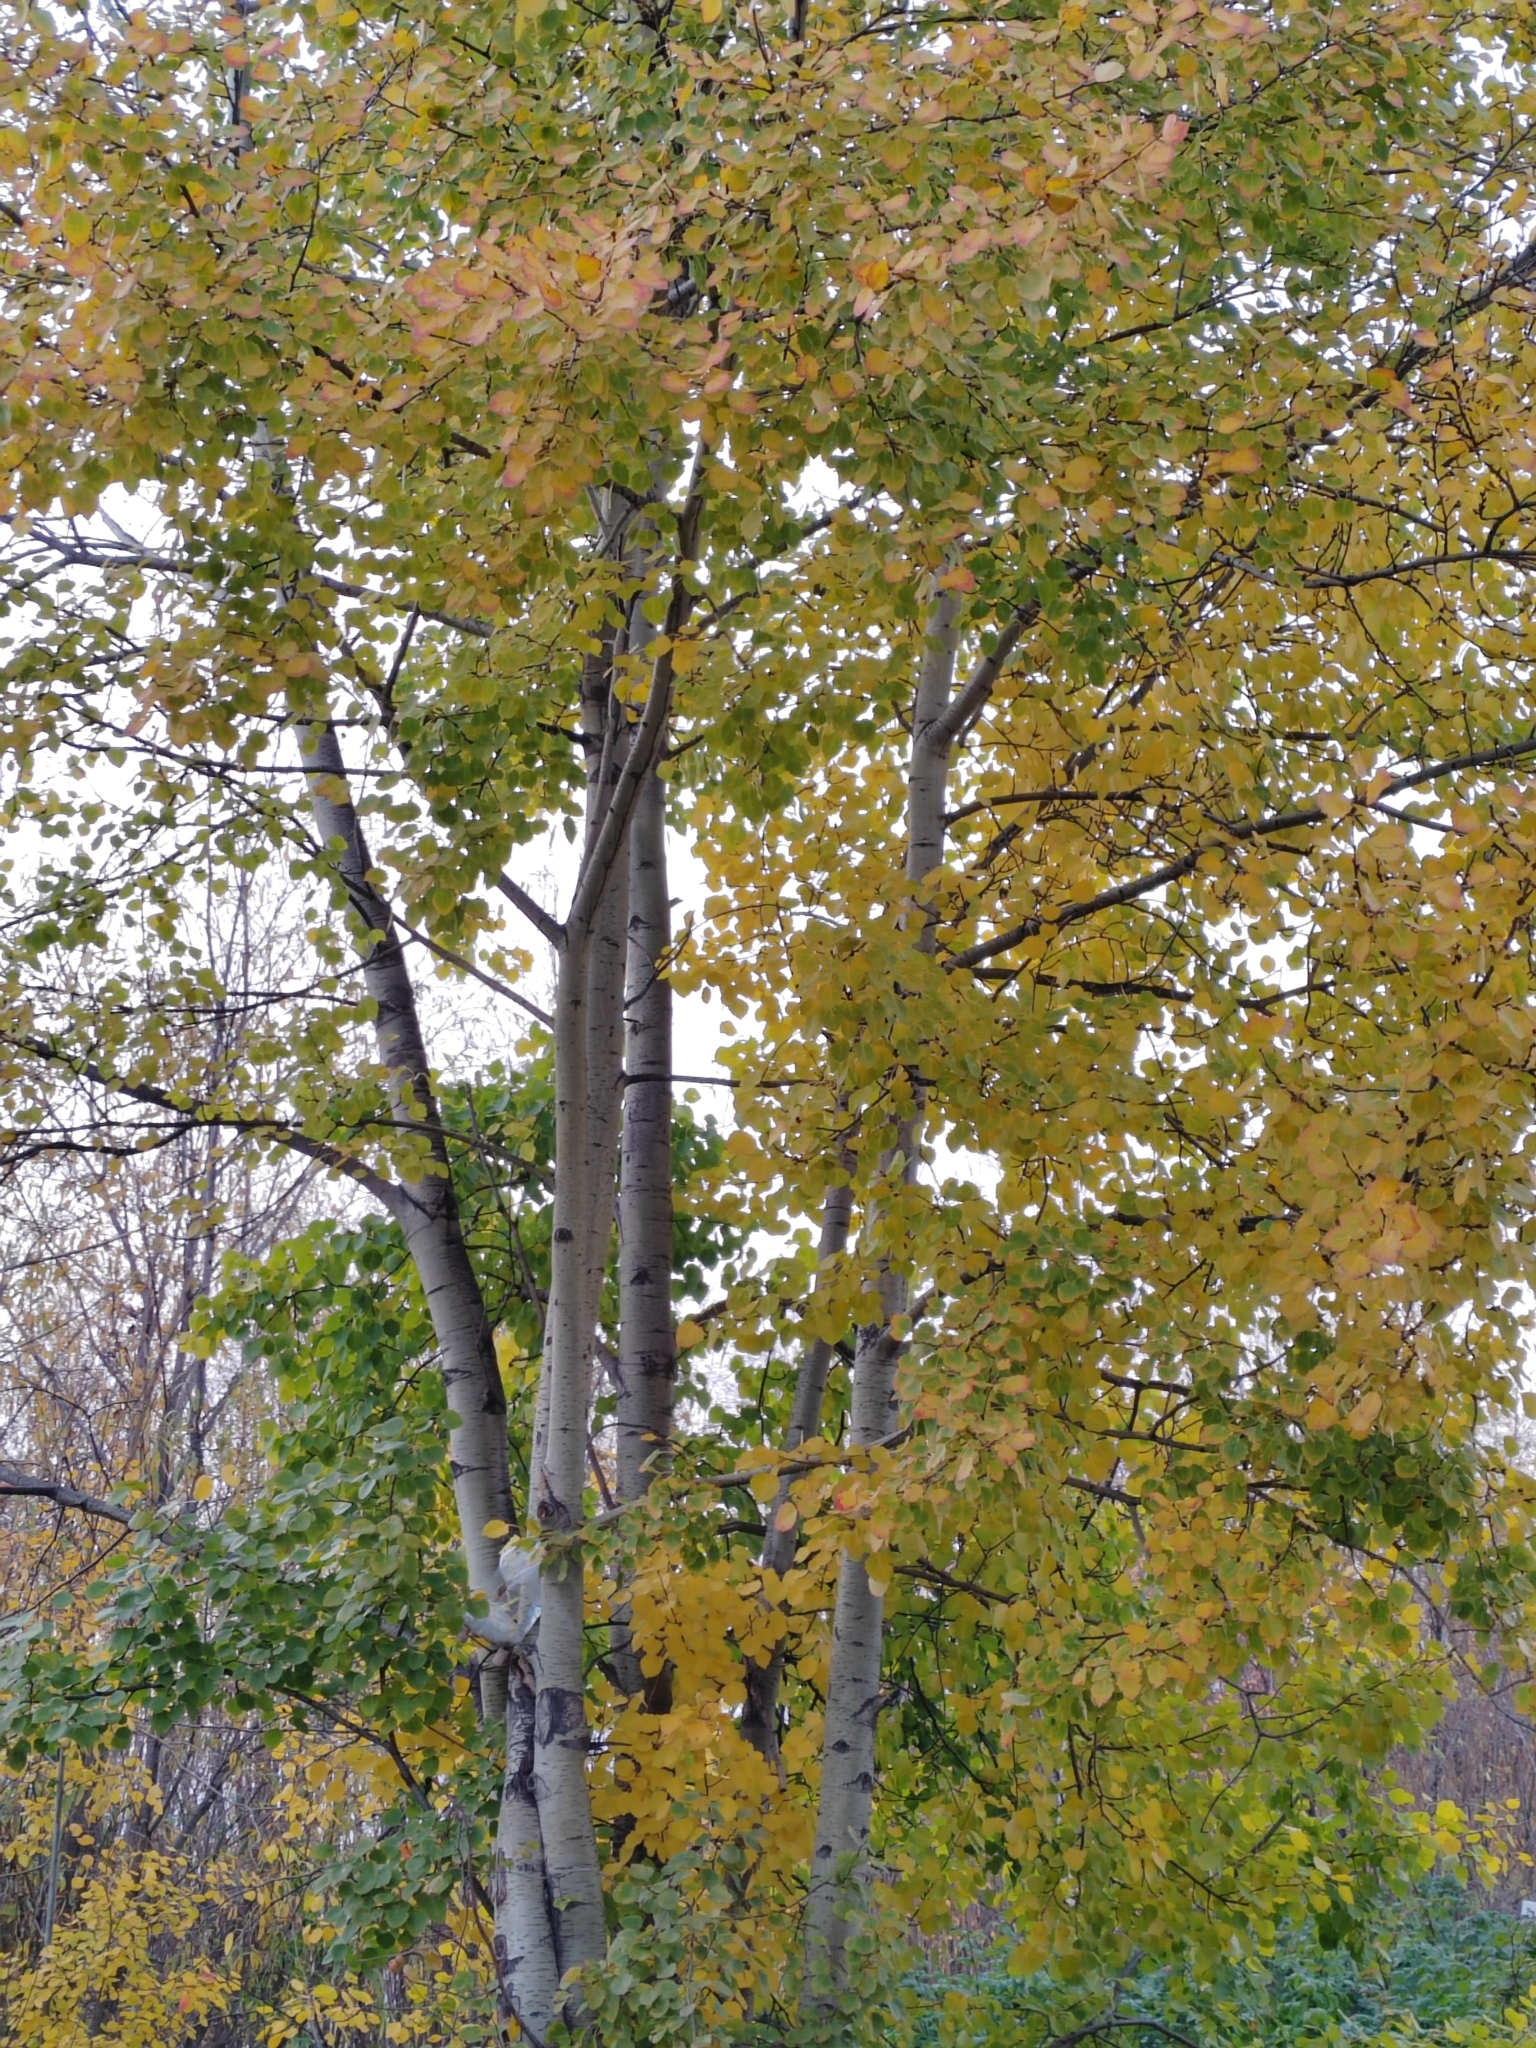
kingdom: Plantae
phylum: Tracheophyta
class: Magnoliopsida
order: Malpighiales
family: Salicaceae
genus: Populus
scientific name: Populus tremula
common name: European aspen
